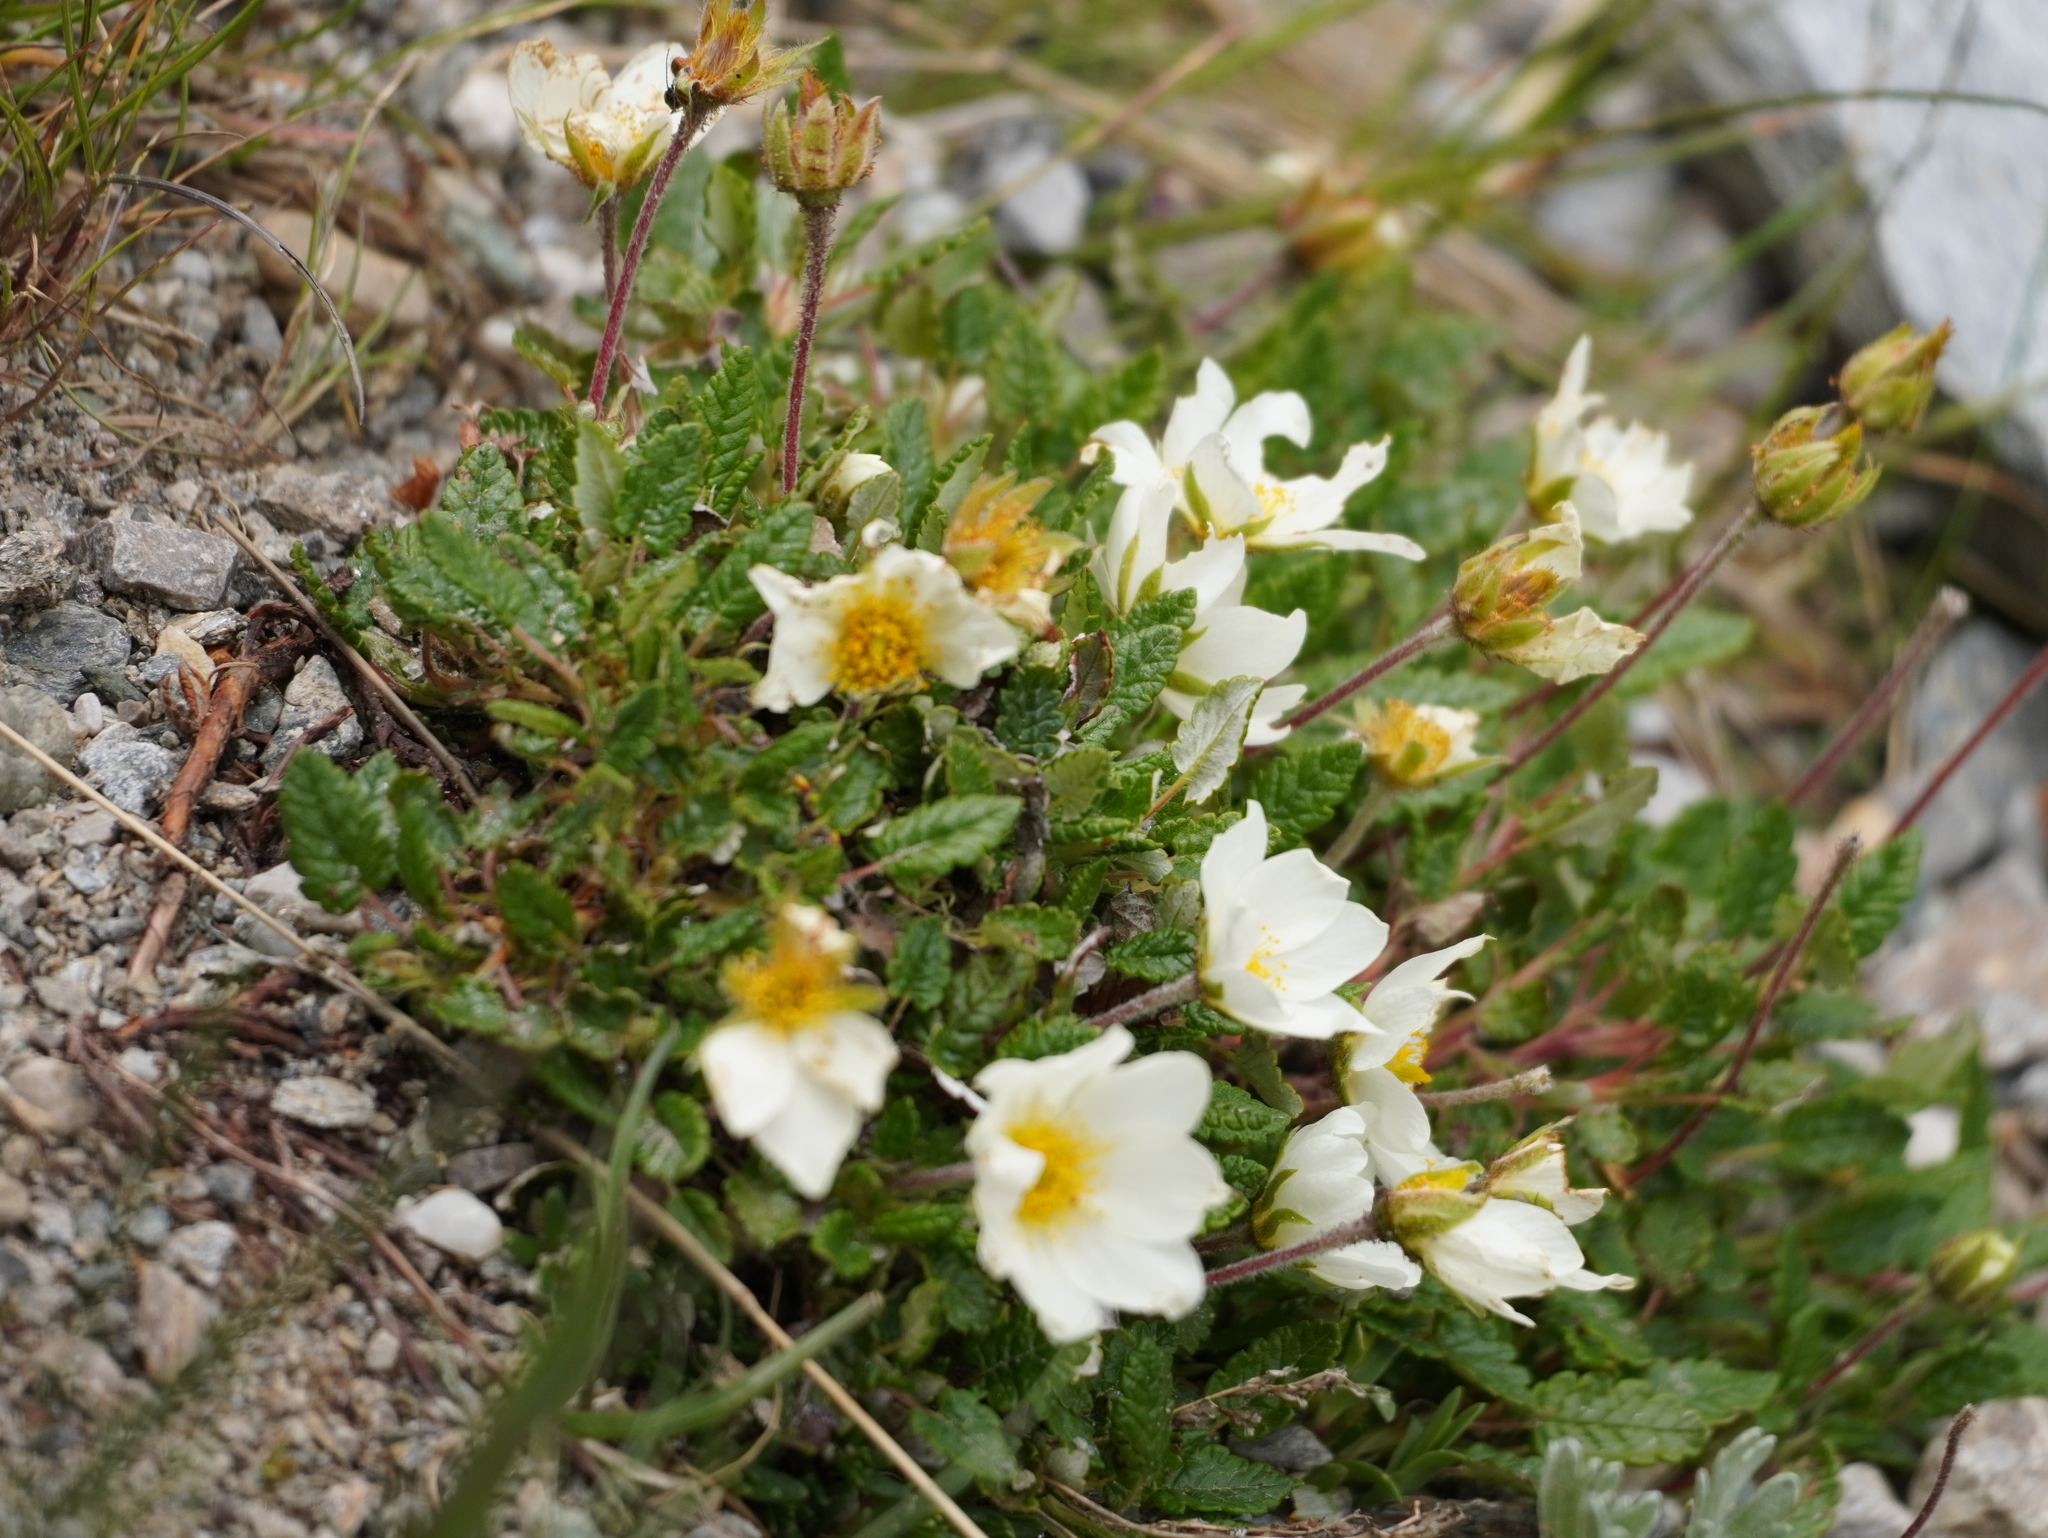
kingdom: Plantae
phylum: Tracheophyta
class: Magnoliopsida
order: Rosales
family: Rosaceae
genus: Dryas
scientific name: Dryas octopetala
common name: Eight-petal mountain-avens
